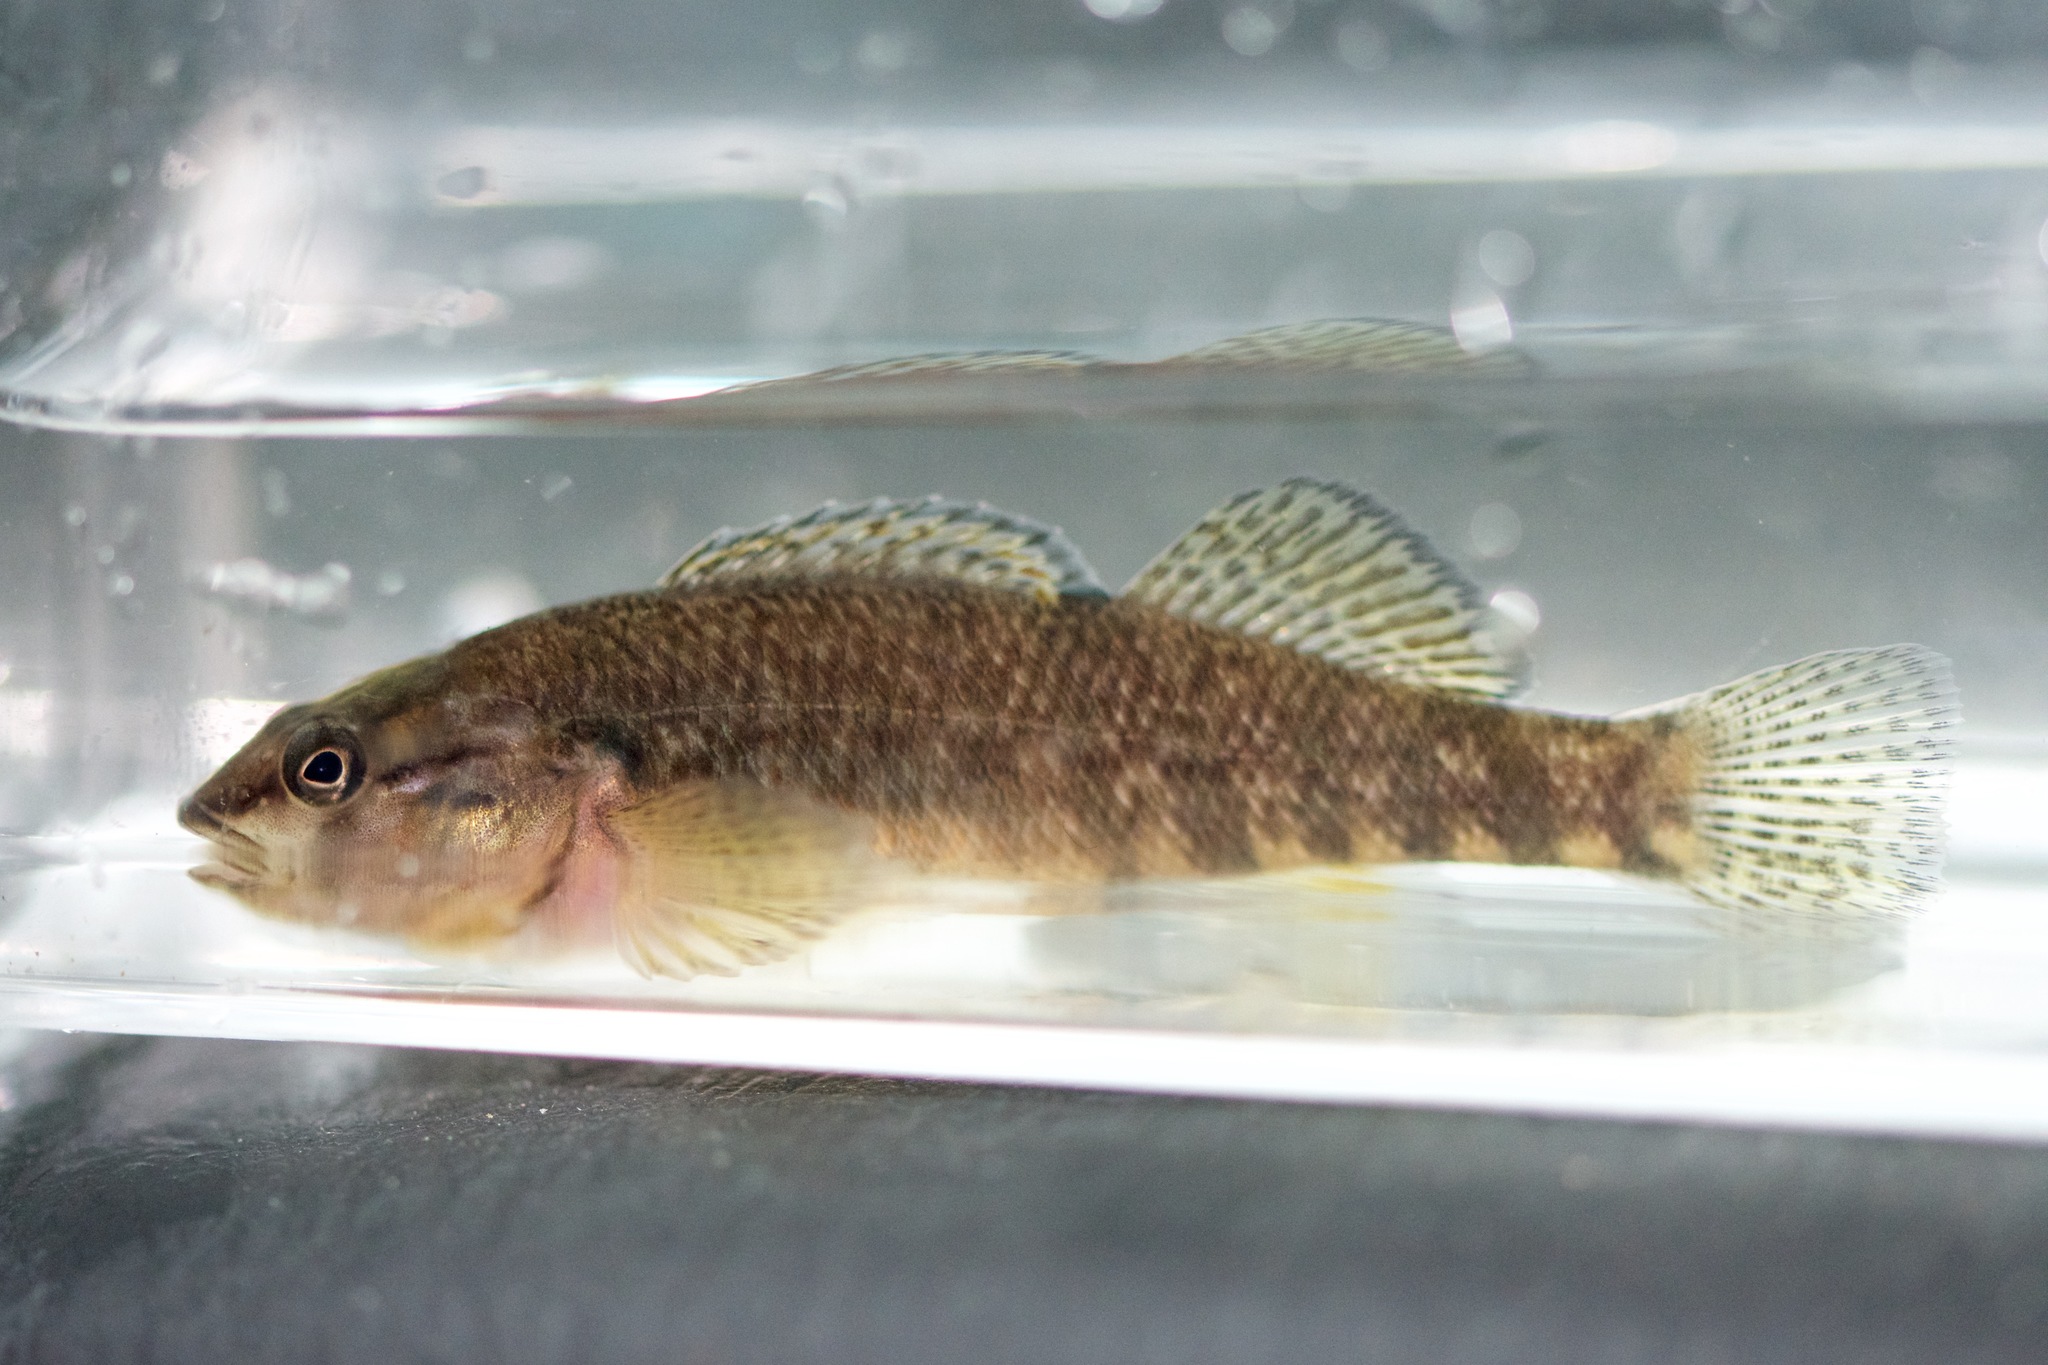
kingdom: Animalia
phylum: Chordata
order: Perciformes
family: Percidae
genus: Etheostoma
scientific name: Etheostoma caeruleum
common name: Rainbow darter
